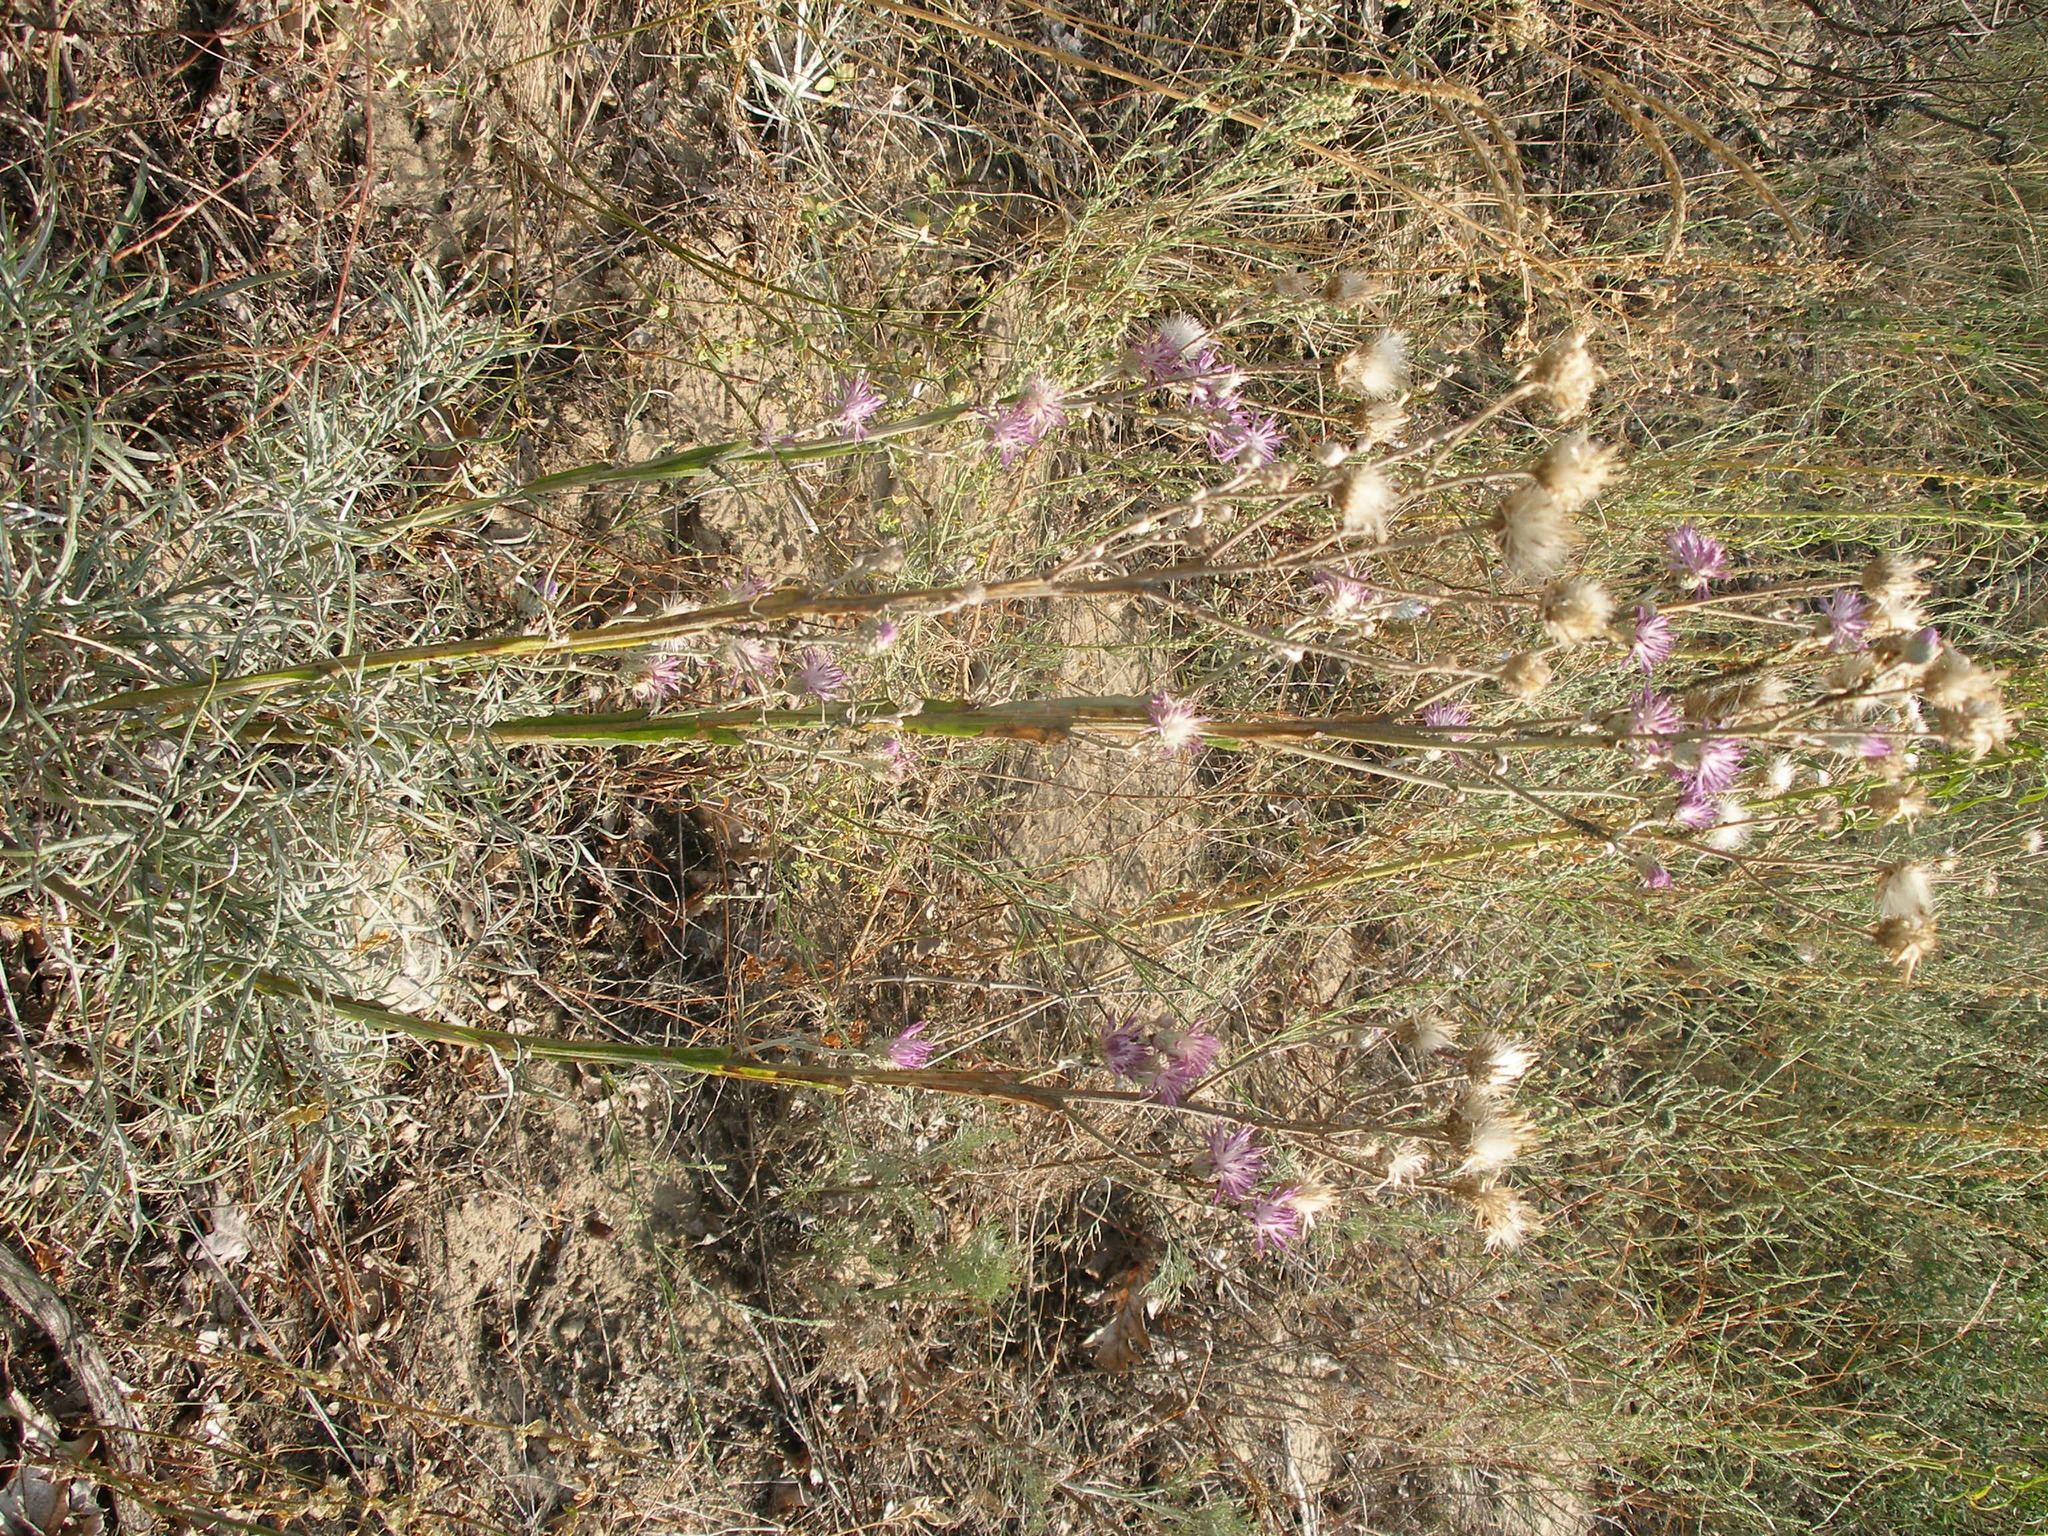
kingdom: Plantae
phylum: Tracheophyta
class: Magnoliopsida
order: Asterales
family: Asteraceae
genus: Jurinea
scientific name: Jurinea polyclonos
